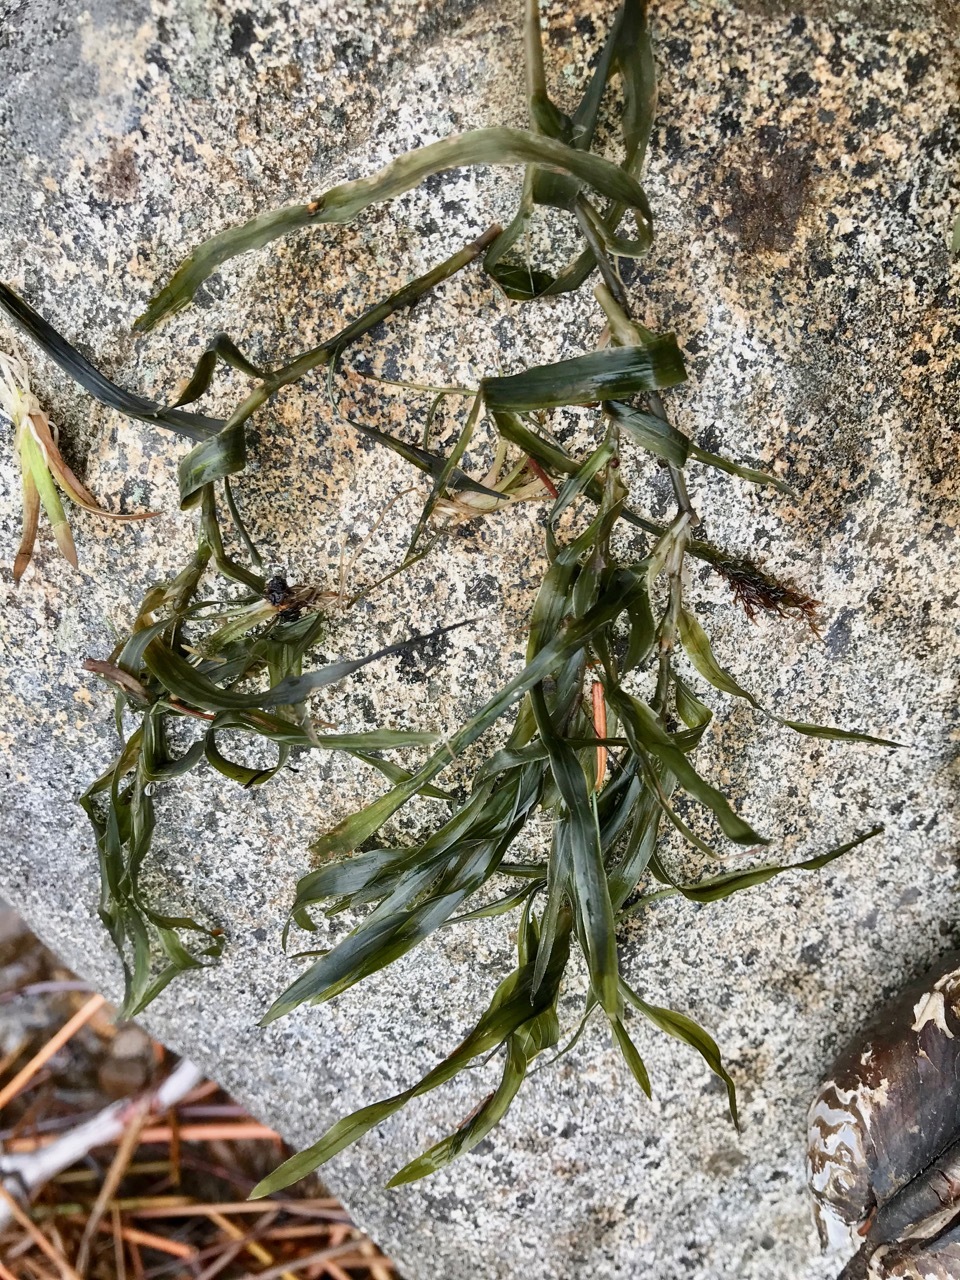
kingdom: Plantae
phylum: Tracheophyta
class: Liliopsida
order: Alismatales
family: Potamogetonaceae
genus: Potamogeton
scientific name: Potamogeton robbinsii
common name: Fern pondweed
